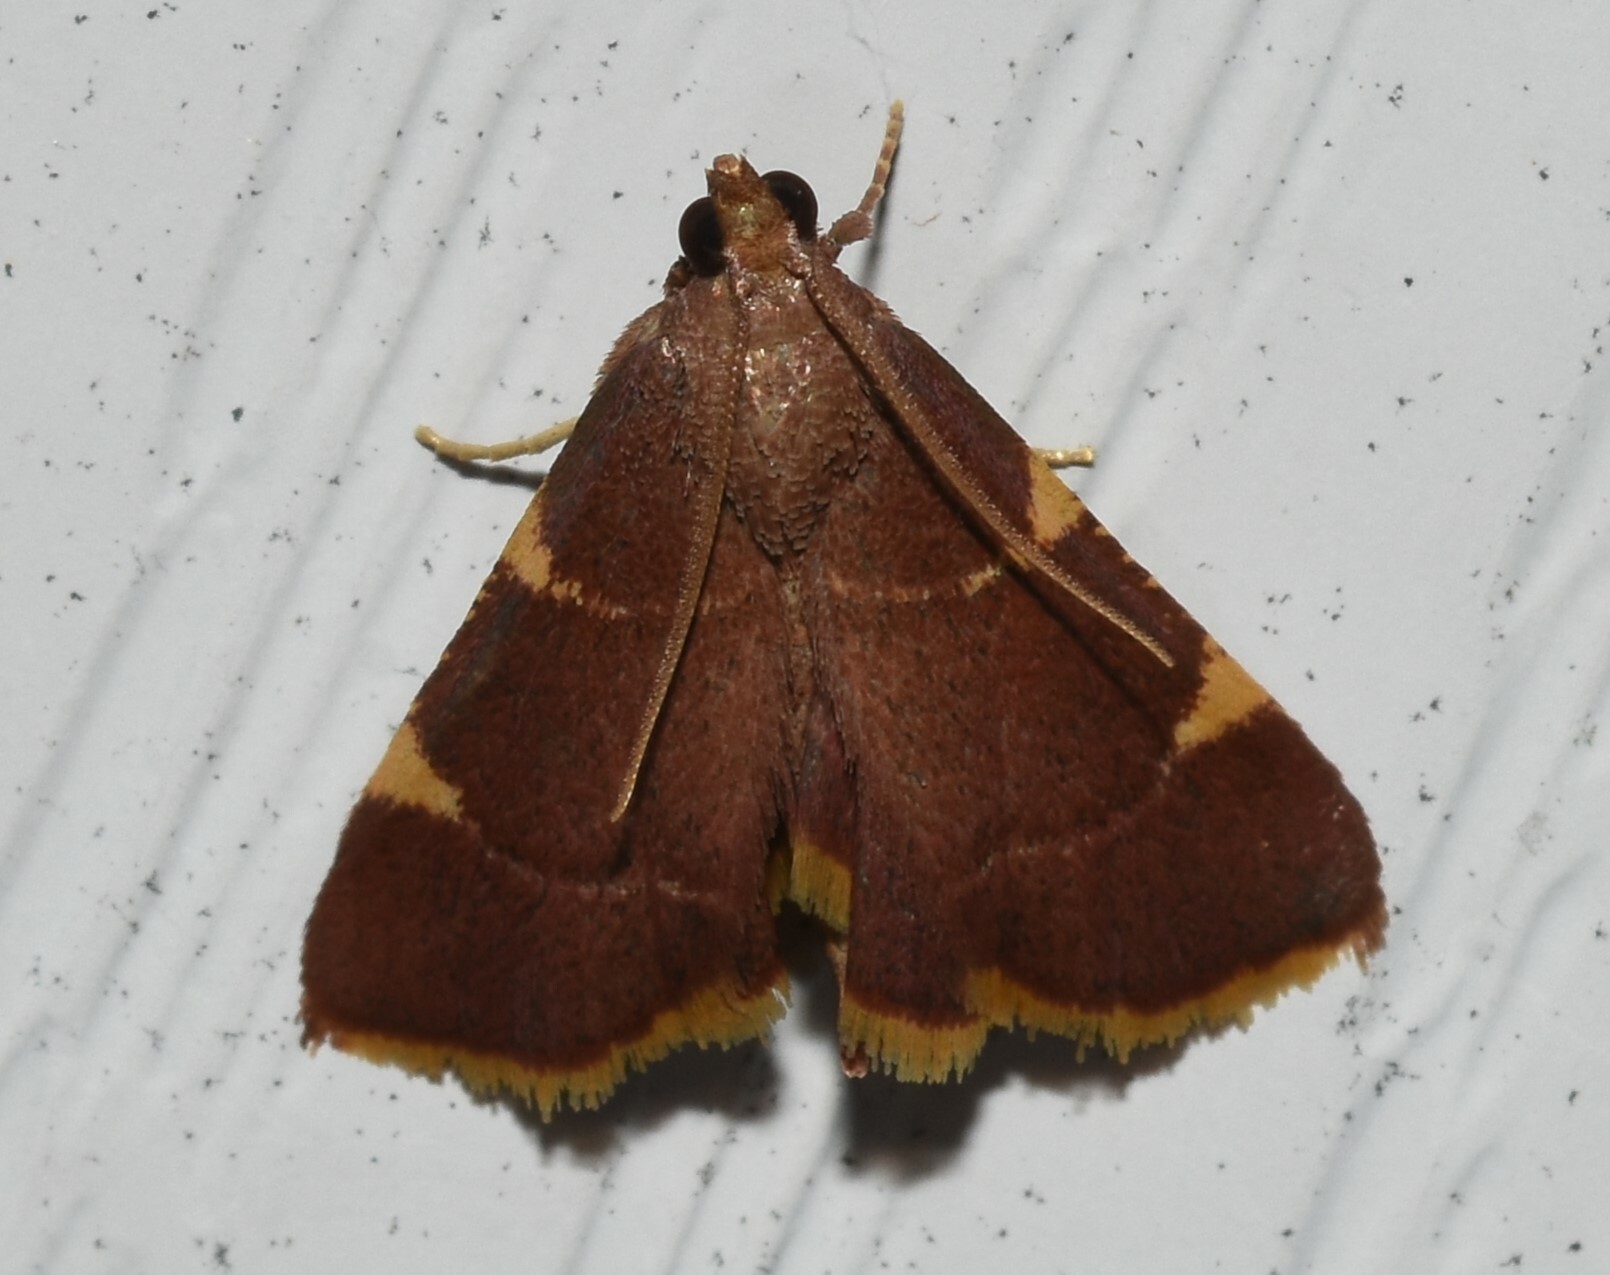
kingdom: Animalia
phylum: Arthropoda
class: Insecta
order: Lepidoptera
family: Pyralidae
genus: Hypsopygia
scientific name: Hypsopygia olinalis
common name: Yellow-fringed dolichomia moth
